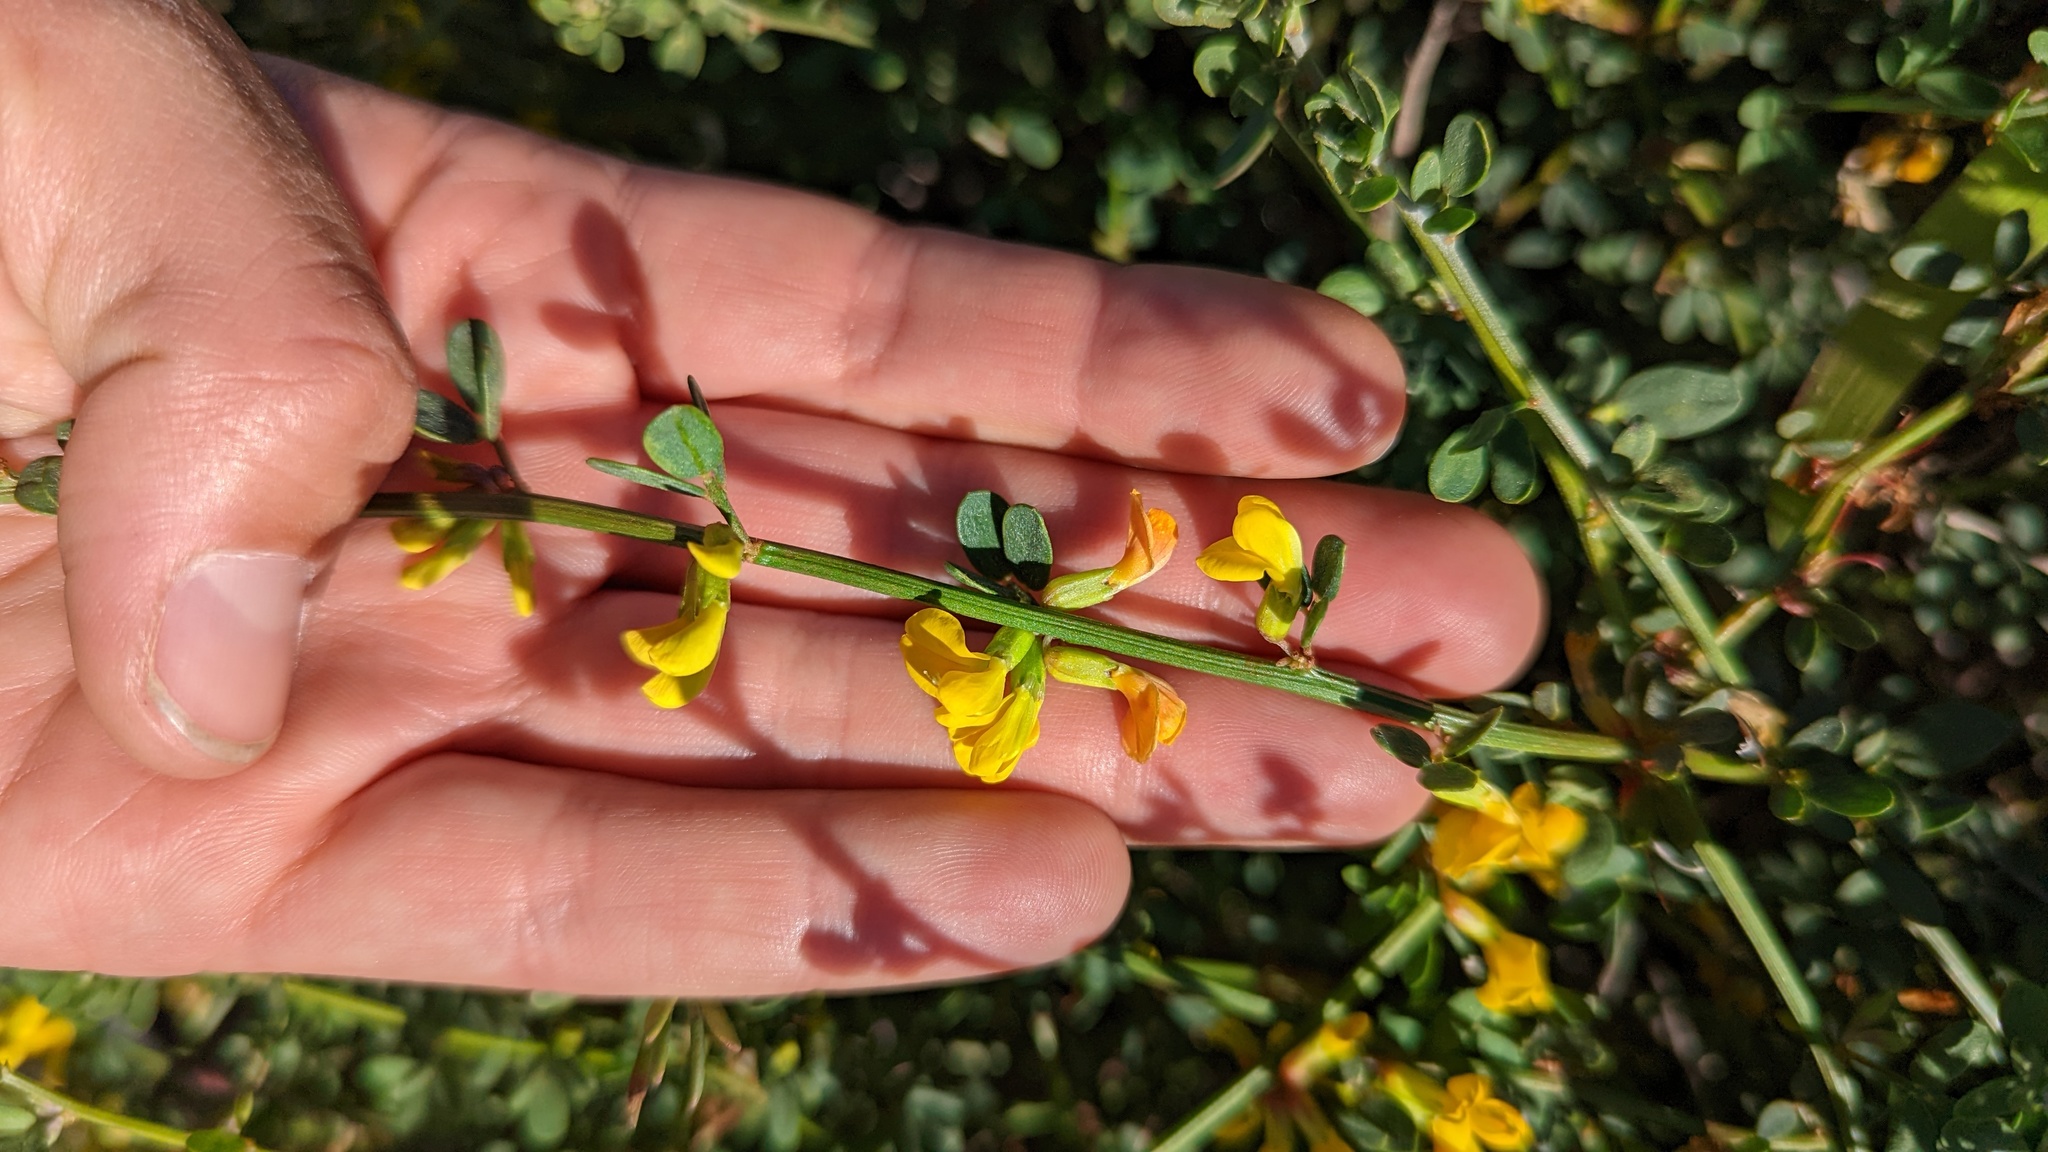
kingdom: Plantae
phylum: Tracheophyta
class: Magnoliopsida
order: Fabales
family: Fabaceae
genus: Acmispon
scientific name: Acmispon glaber
